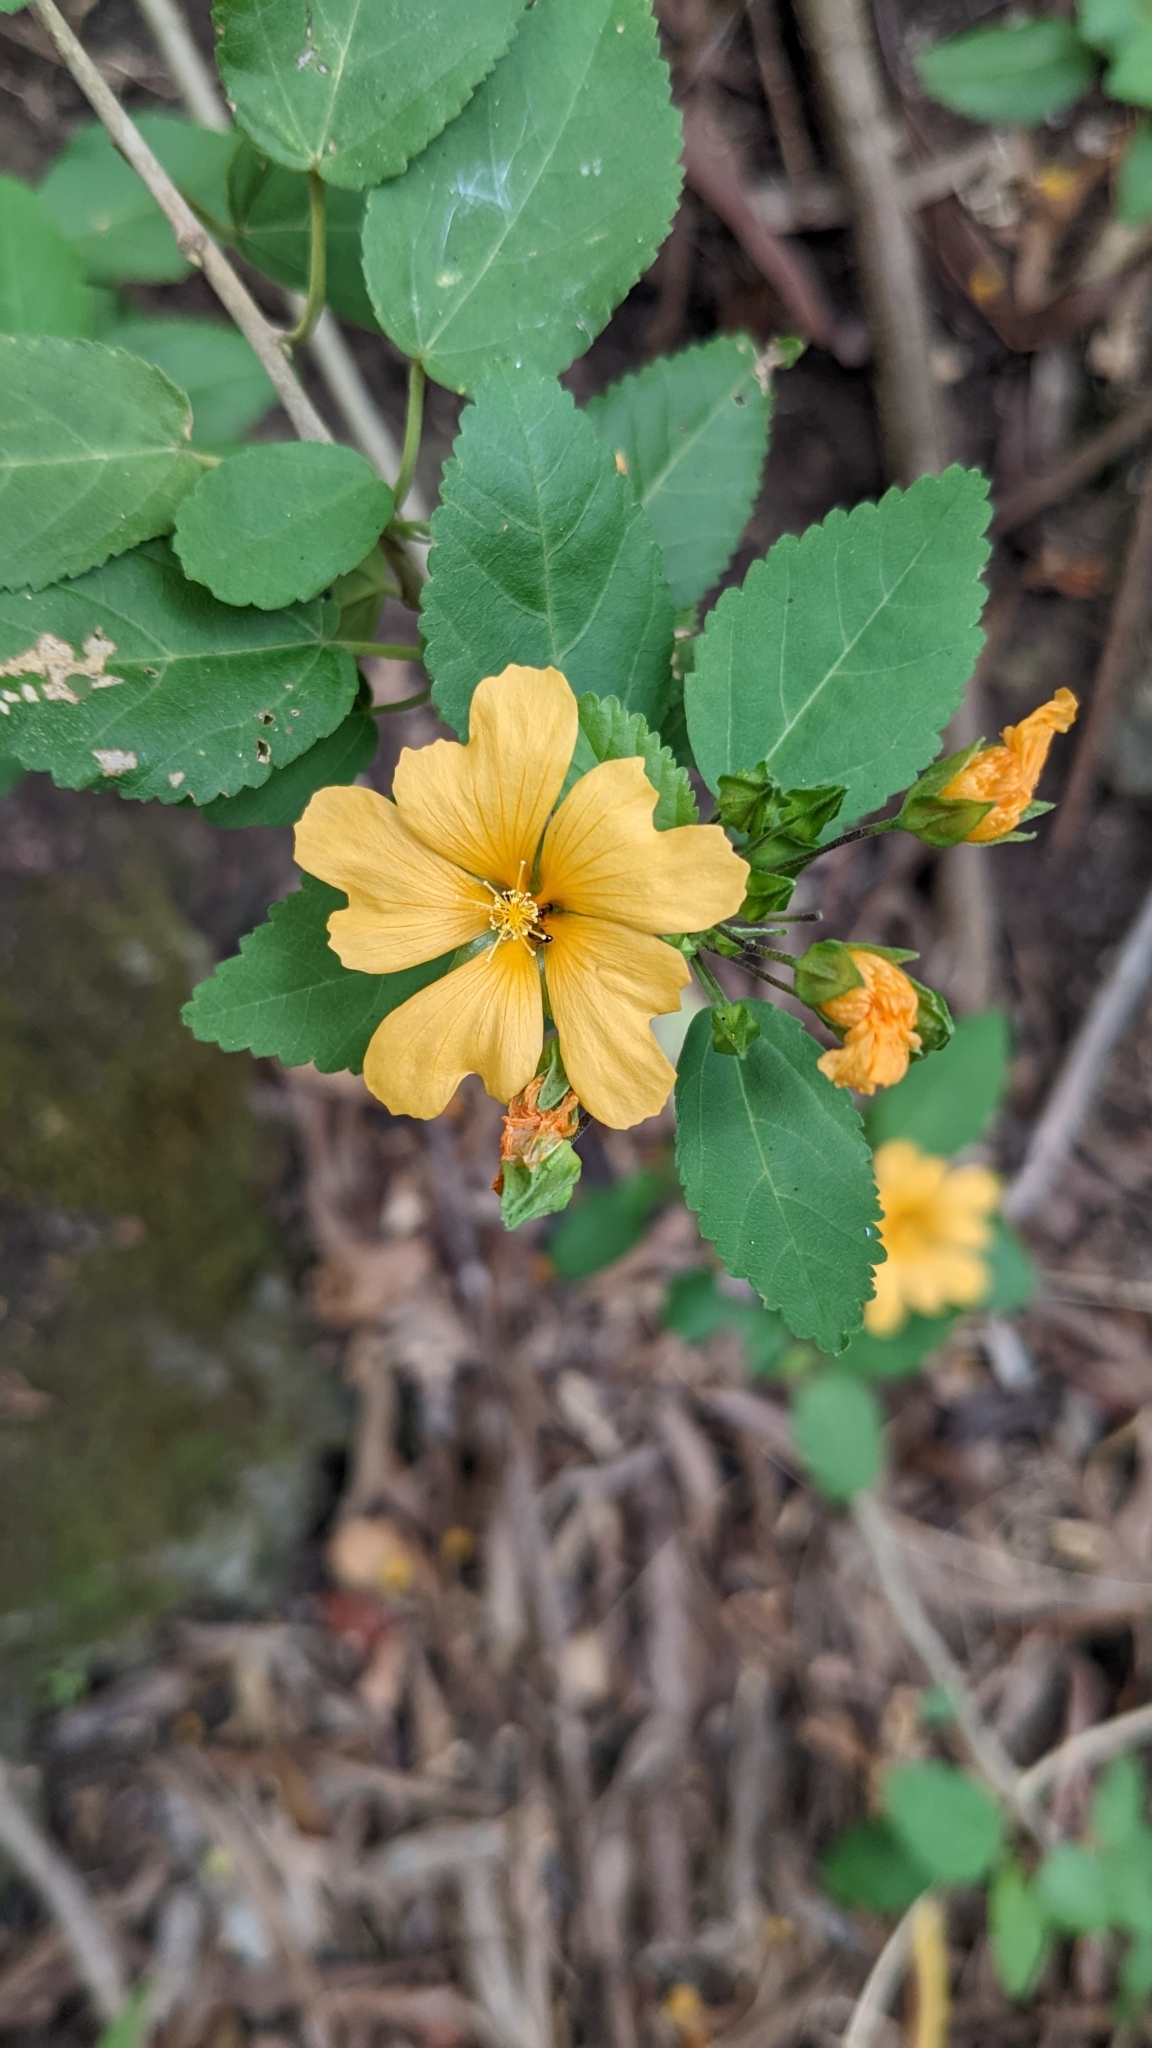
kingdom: Plantae
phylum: Tracheophyta
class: Magnoliopsida
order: Malvales
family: Malvaceae
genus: Sida
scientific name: Sida fallax
